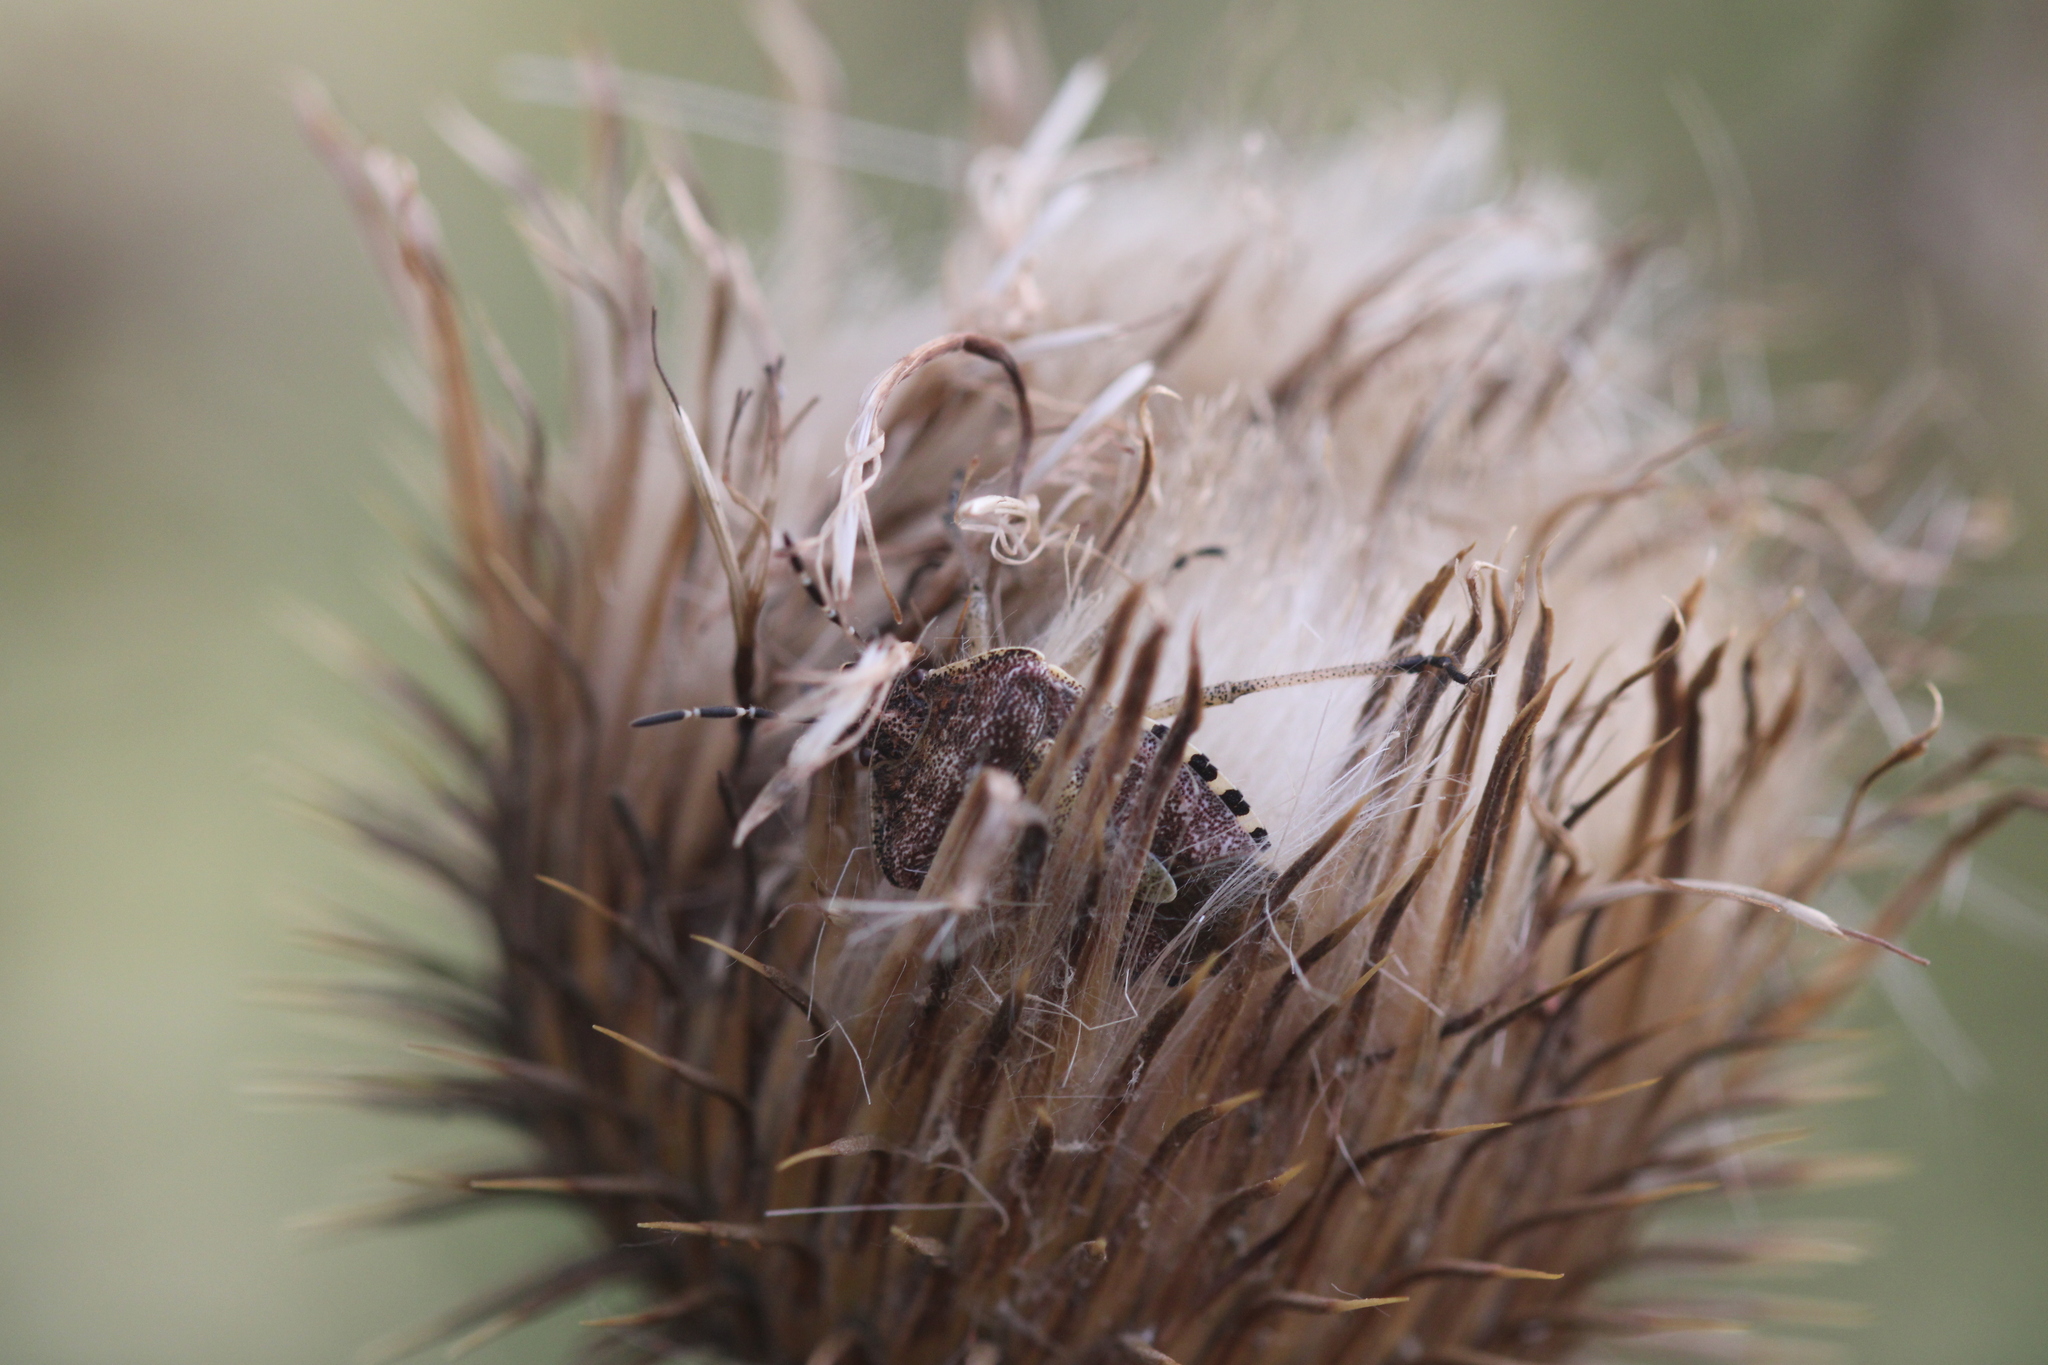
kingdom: Animalia
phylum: Arthropoda
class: Insecta
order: Hemiptera
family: Pentatomidae
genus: Dolycoris
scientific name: Dolycoris baccarum
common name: Sloe bug
